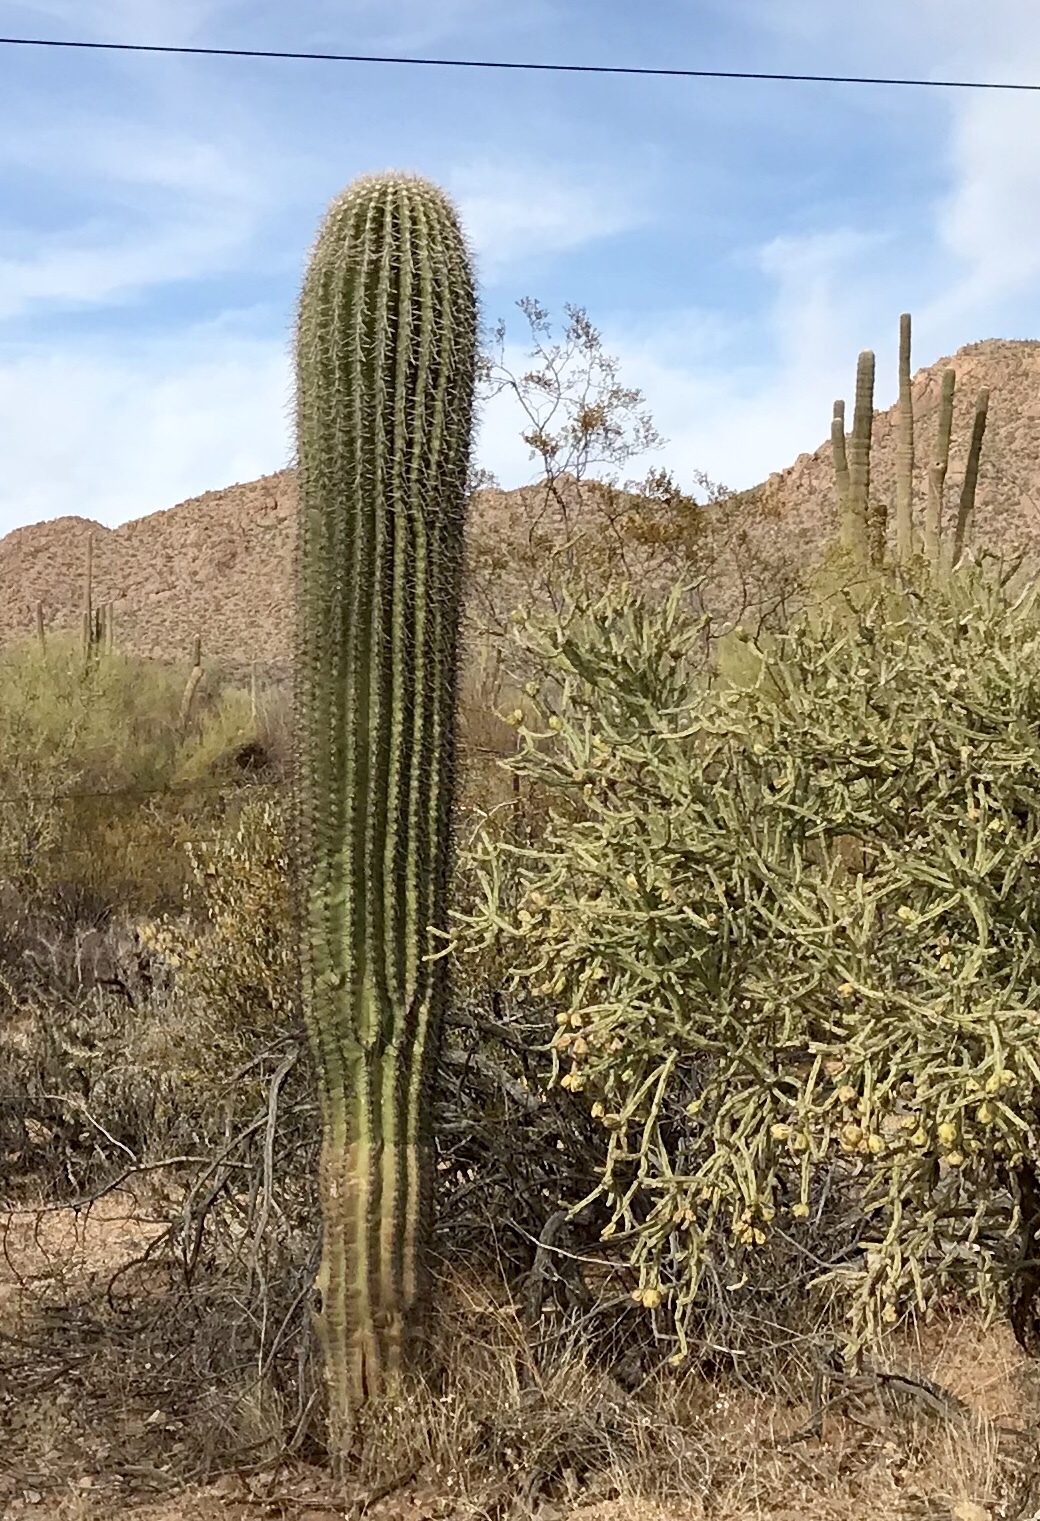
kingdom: Plantae
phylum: Tracheophyta
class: Magnoliopsida
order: Caryophyllales
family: Cactaceae
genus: Cylindropuntia
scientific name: Cylindropuntia arbuscula
